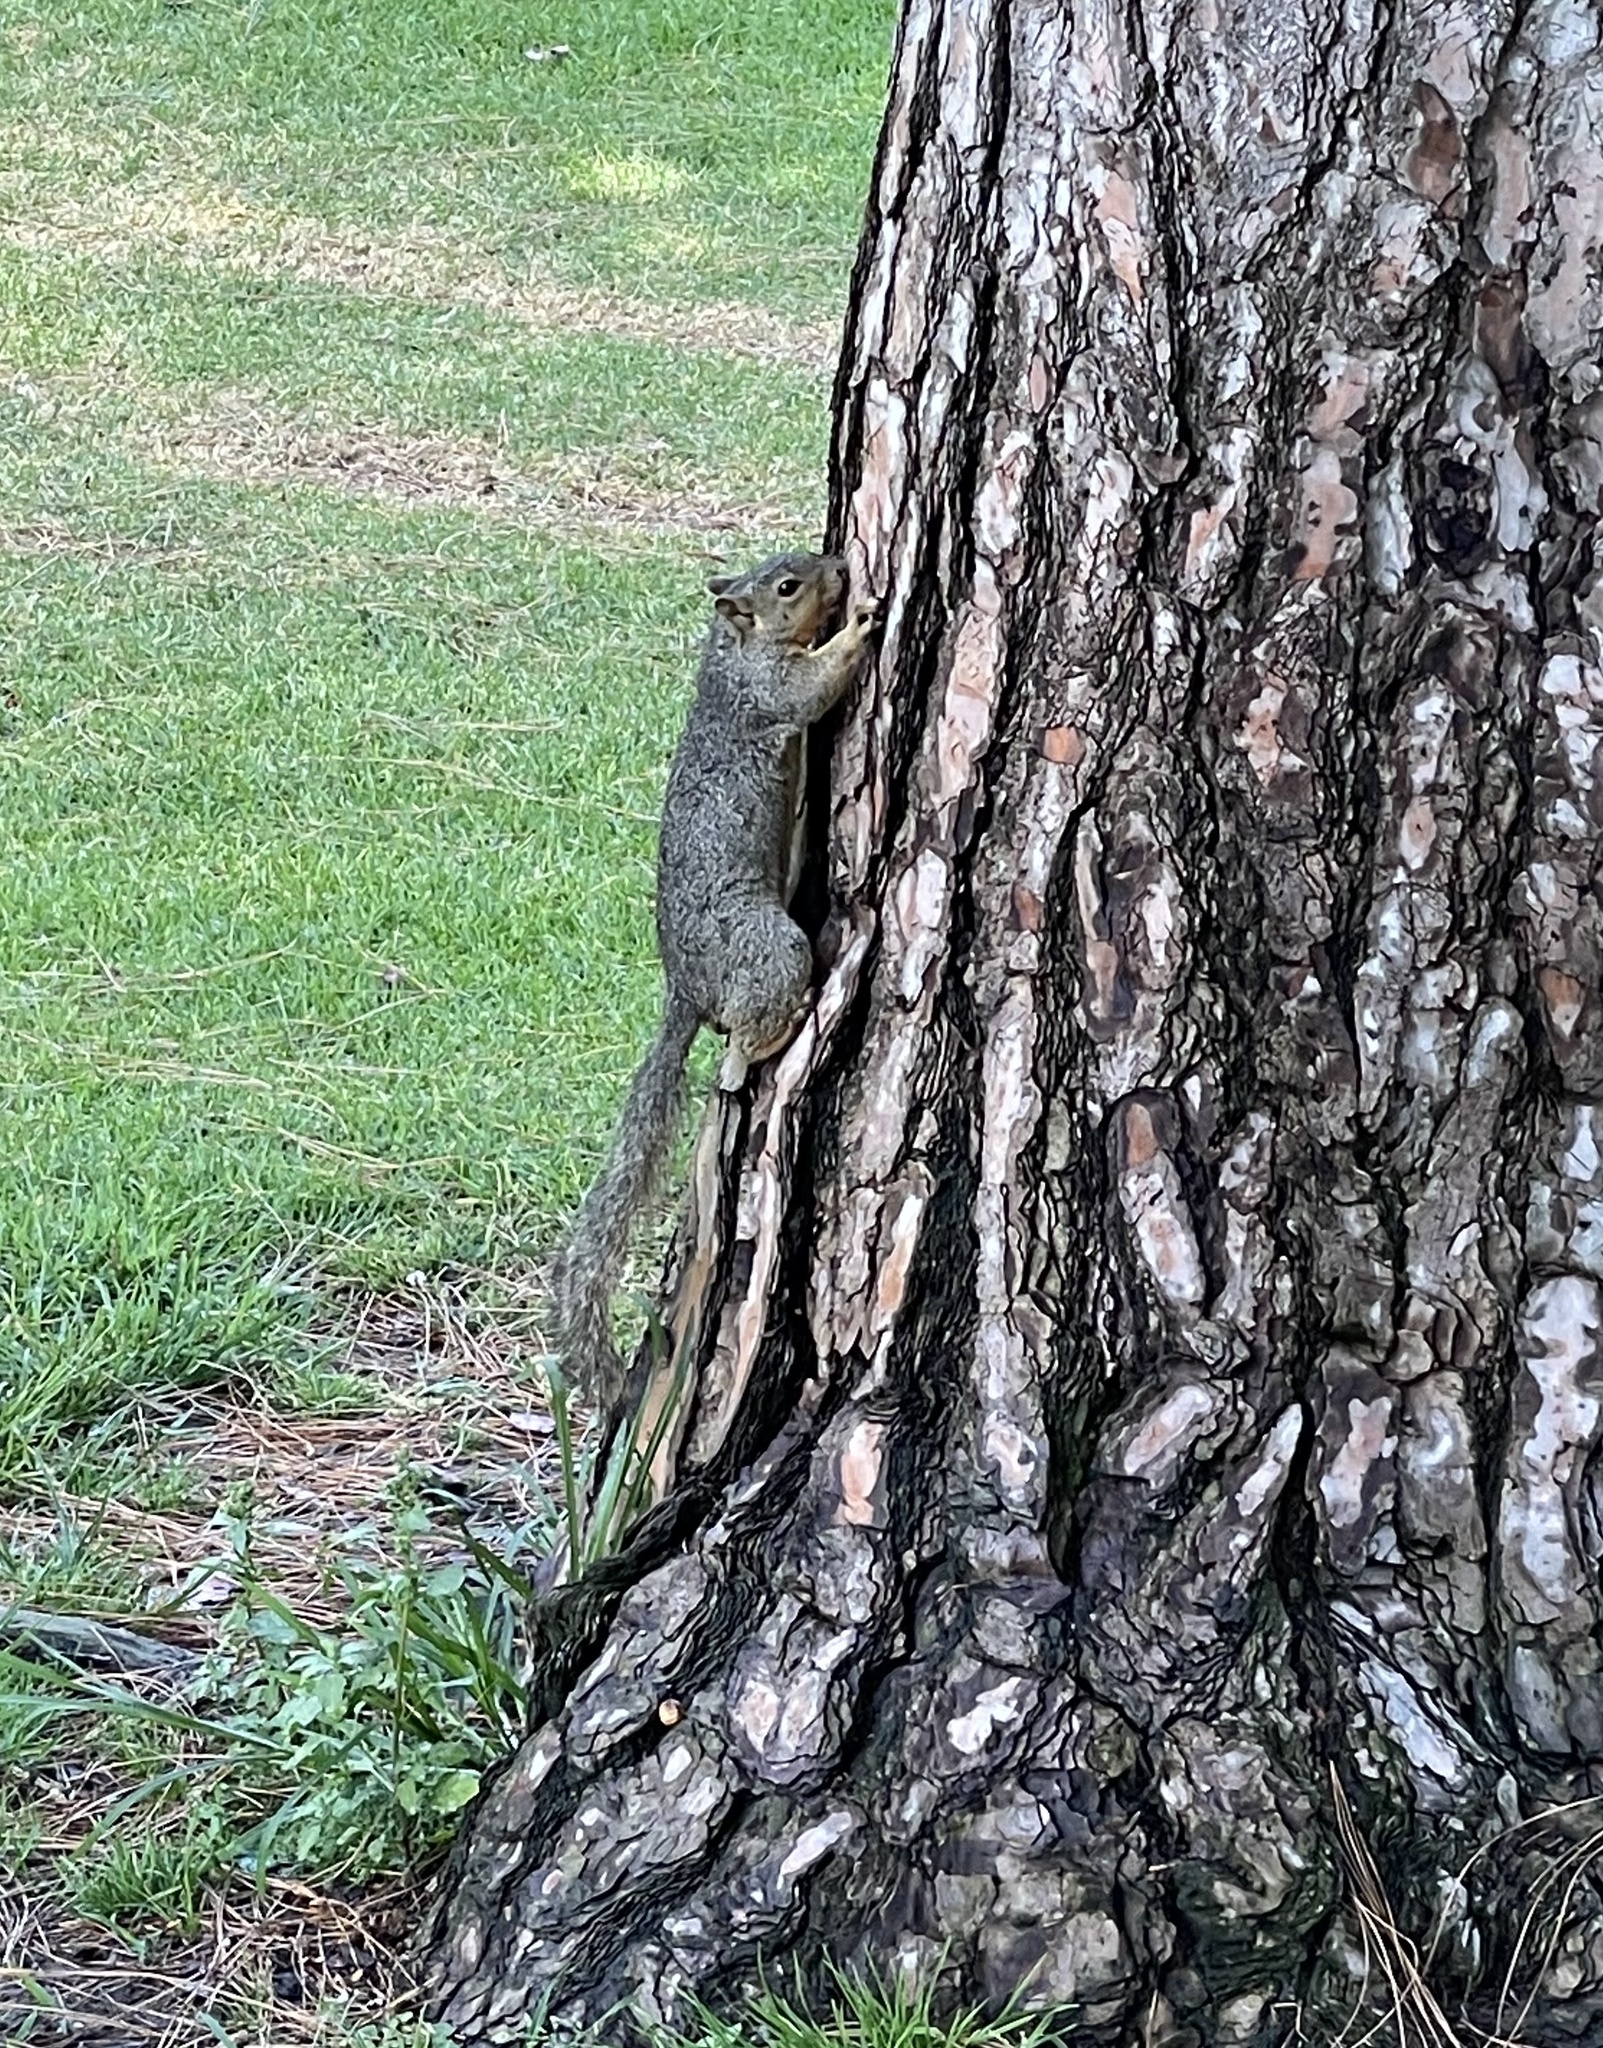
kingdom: Animalia
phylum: Chordata
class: Mammalia
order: Rodentia
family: Sciuridae
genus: Sciurus
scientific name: Sciurus niger
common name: Fox squirrel
